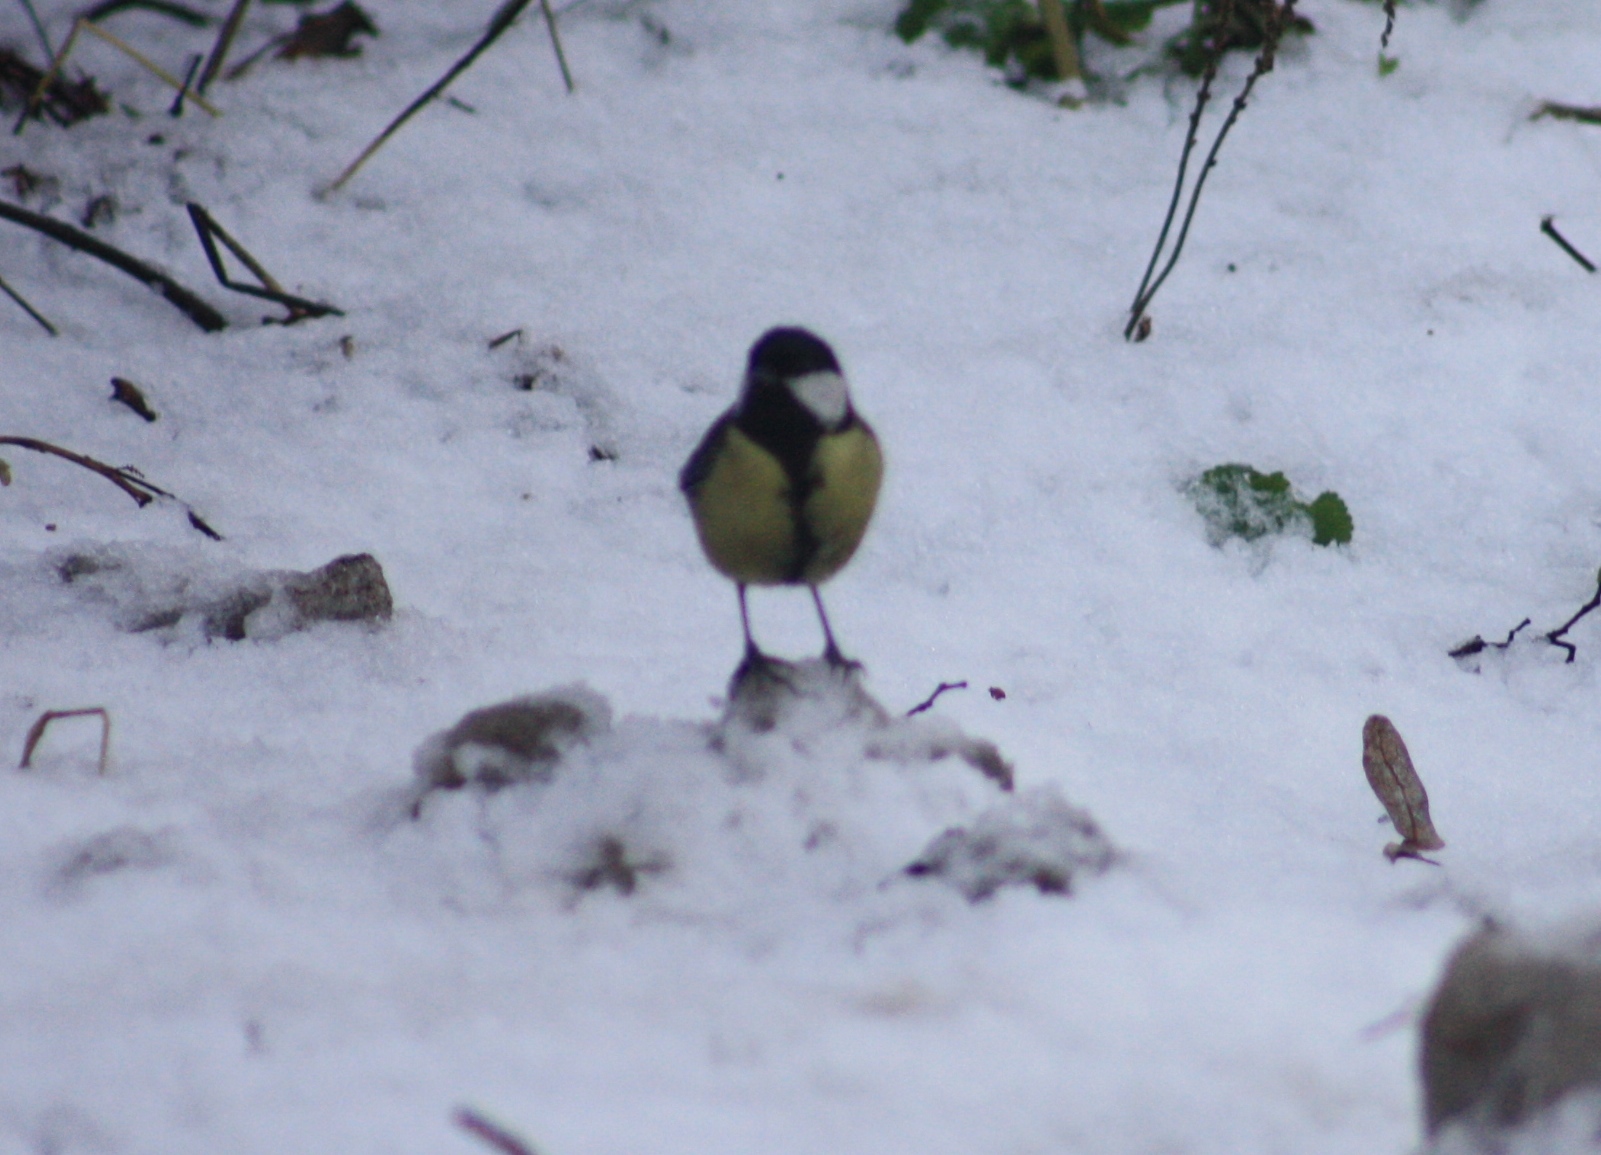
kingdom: Animalia
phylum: Chordata
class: Aves
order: Passeriformes
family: Paridae
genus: Parus
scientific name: Parus major
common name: Great tit
